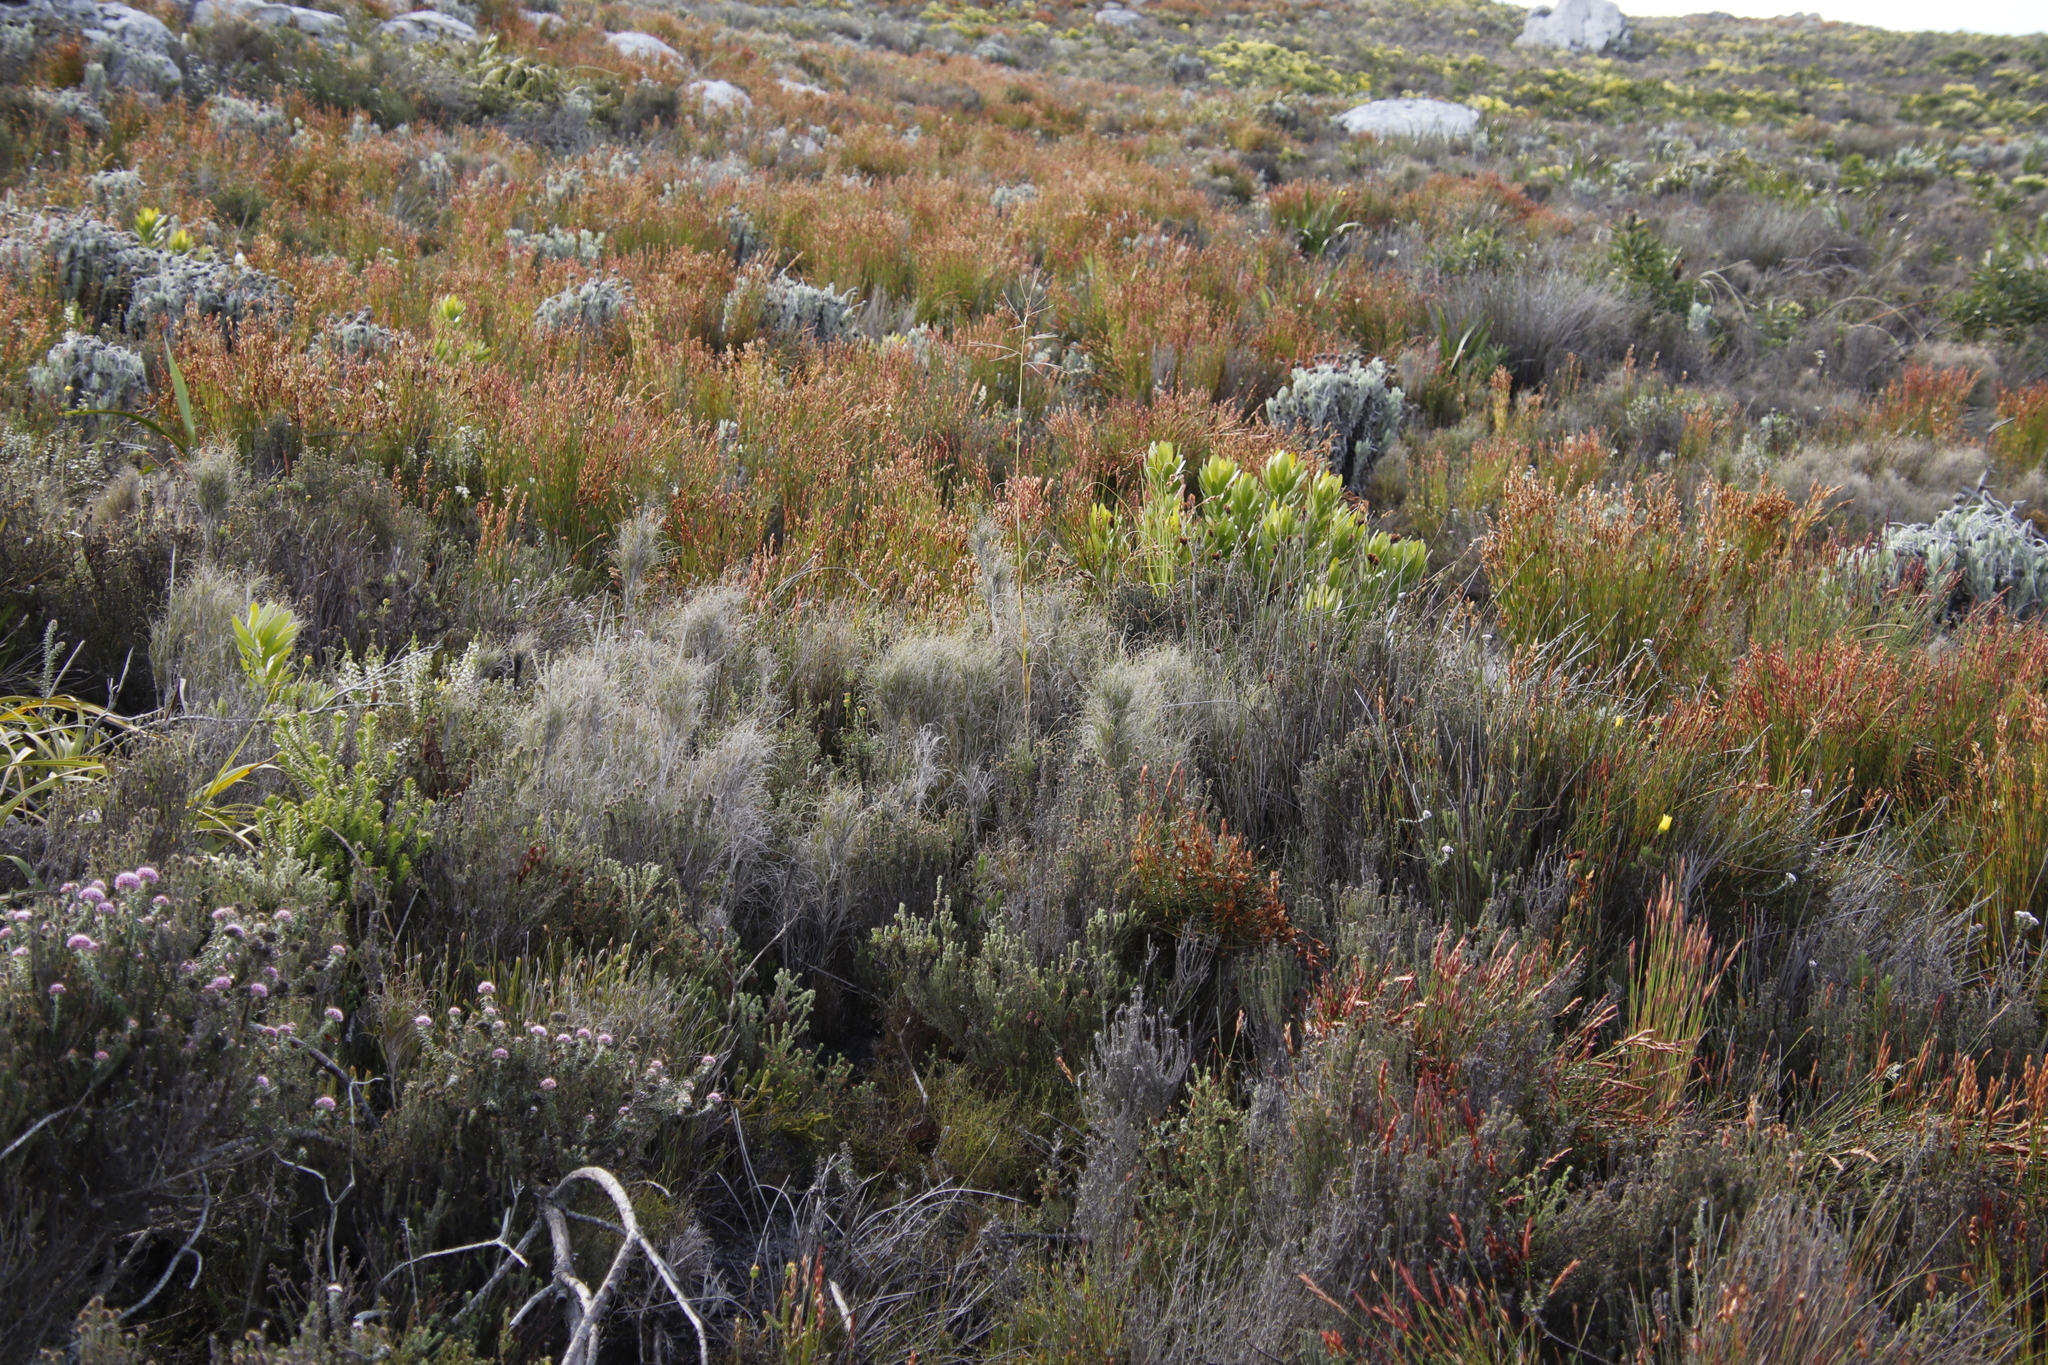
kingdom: Plantae
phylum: Tracheophyta
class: Liliopsida
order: Poales
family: Poaceae
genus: Pseudopentameris
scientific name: Pseudopentameris macrantha
